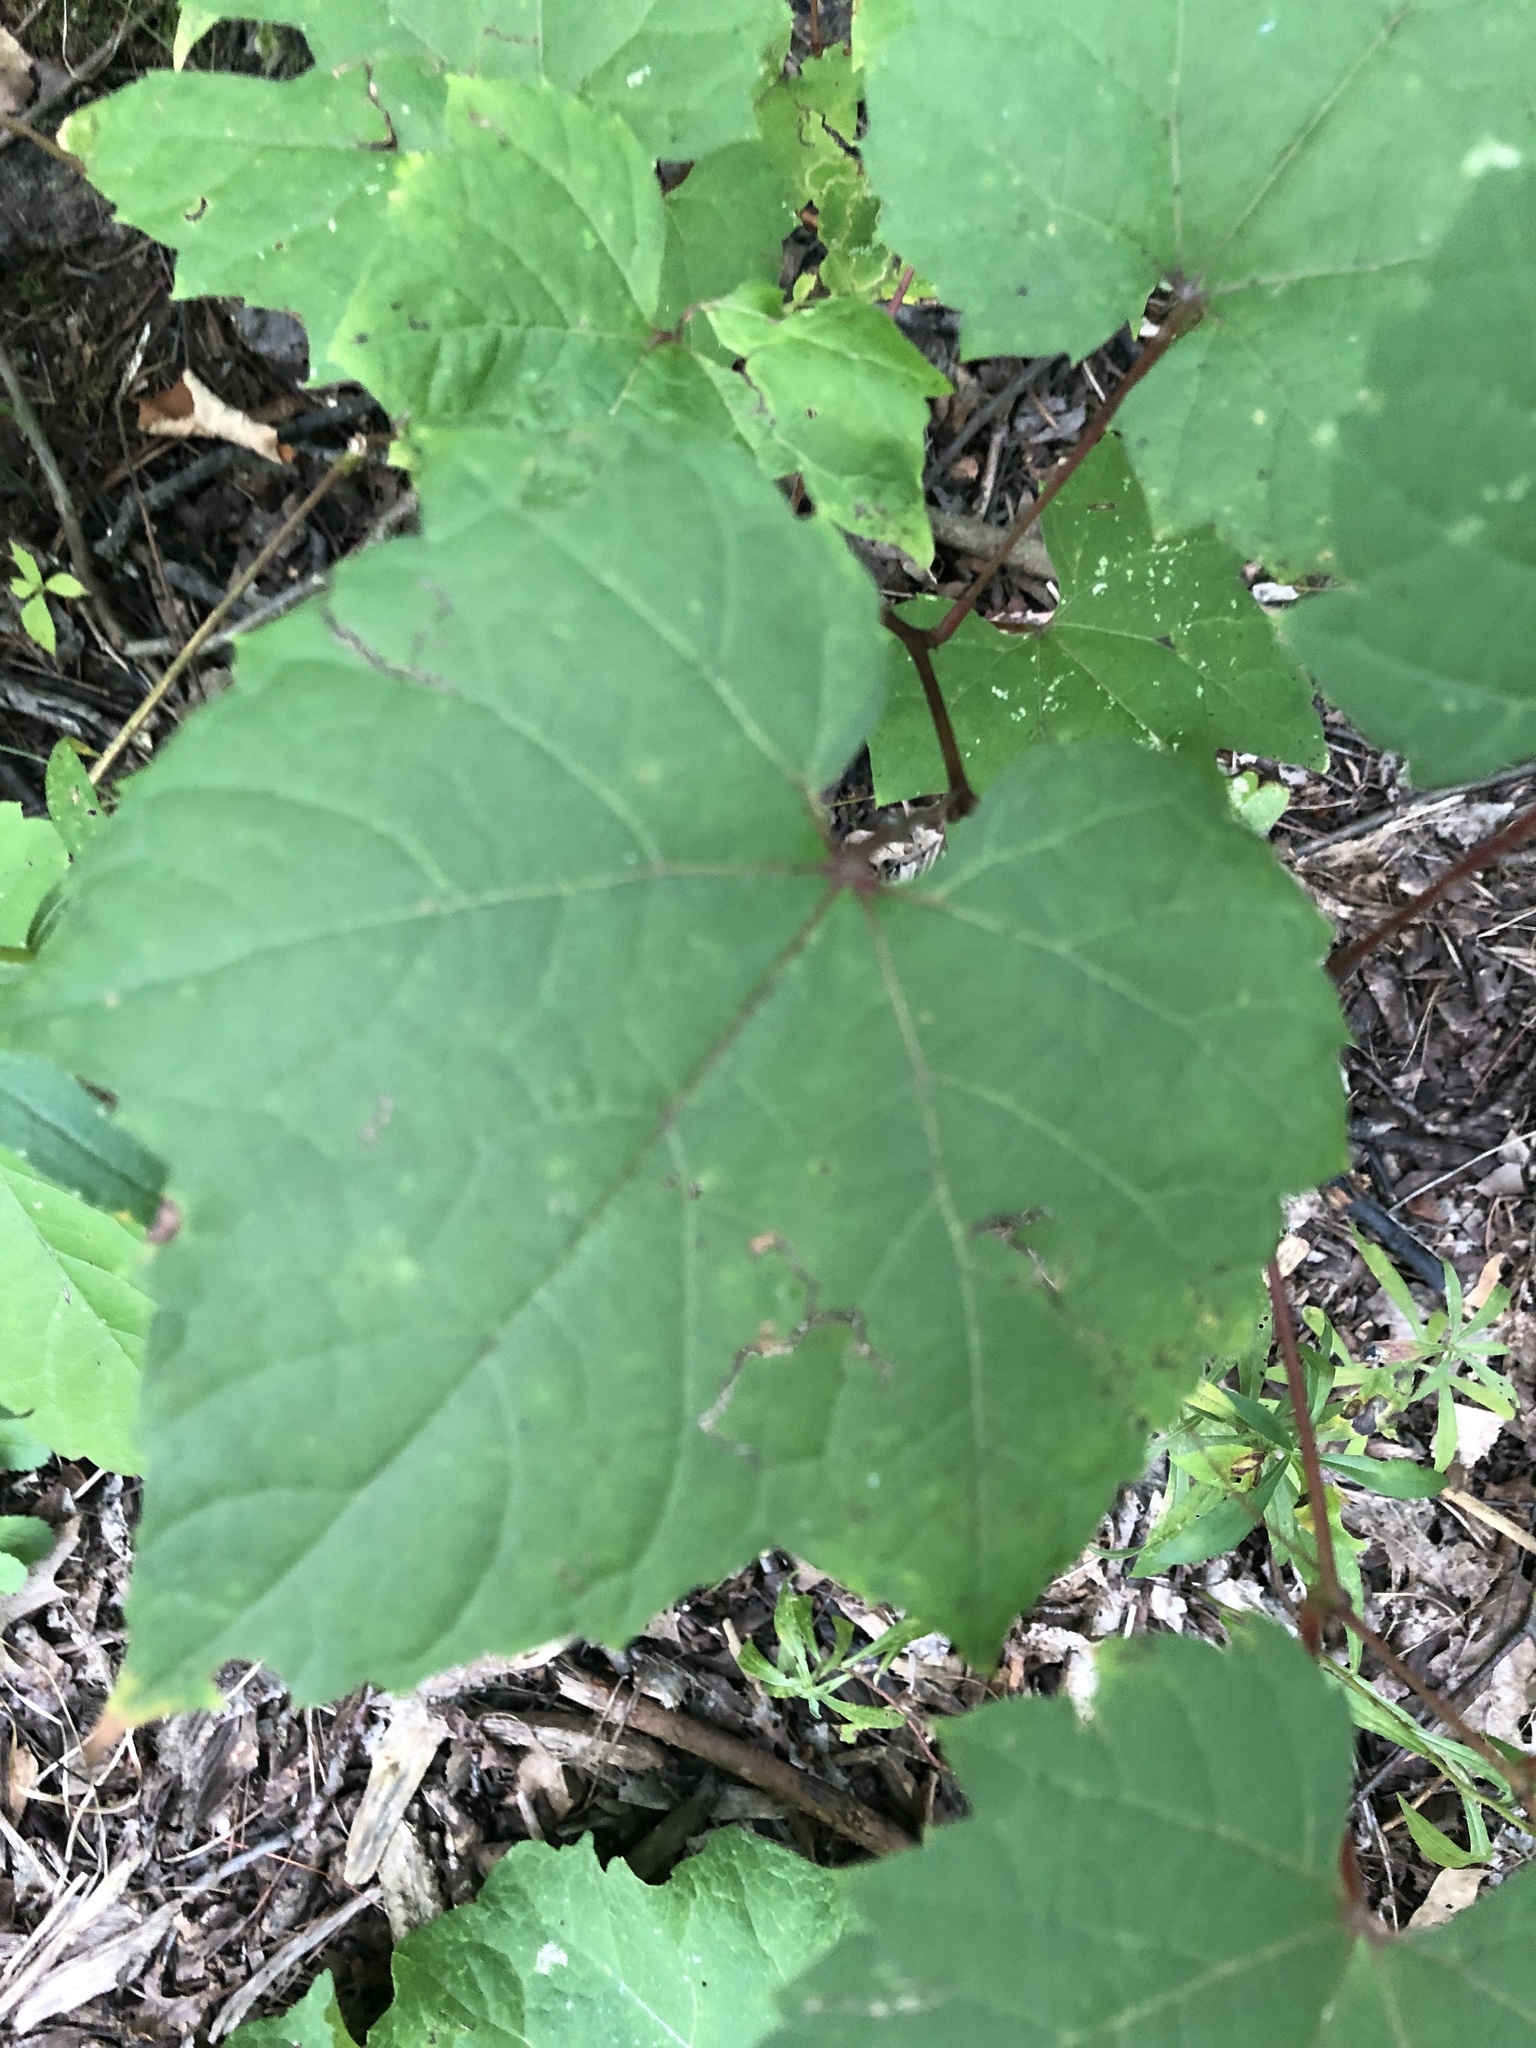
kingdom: Plantae
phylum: Tracheophyta
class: Magnoliopsida
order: Vitales
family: Vitaceae
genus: Vitis
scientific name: Vitis riparia
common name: Frost grape
